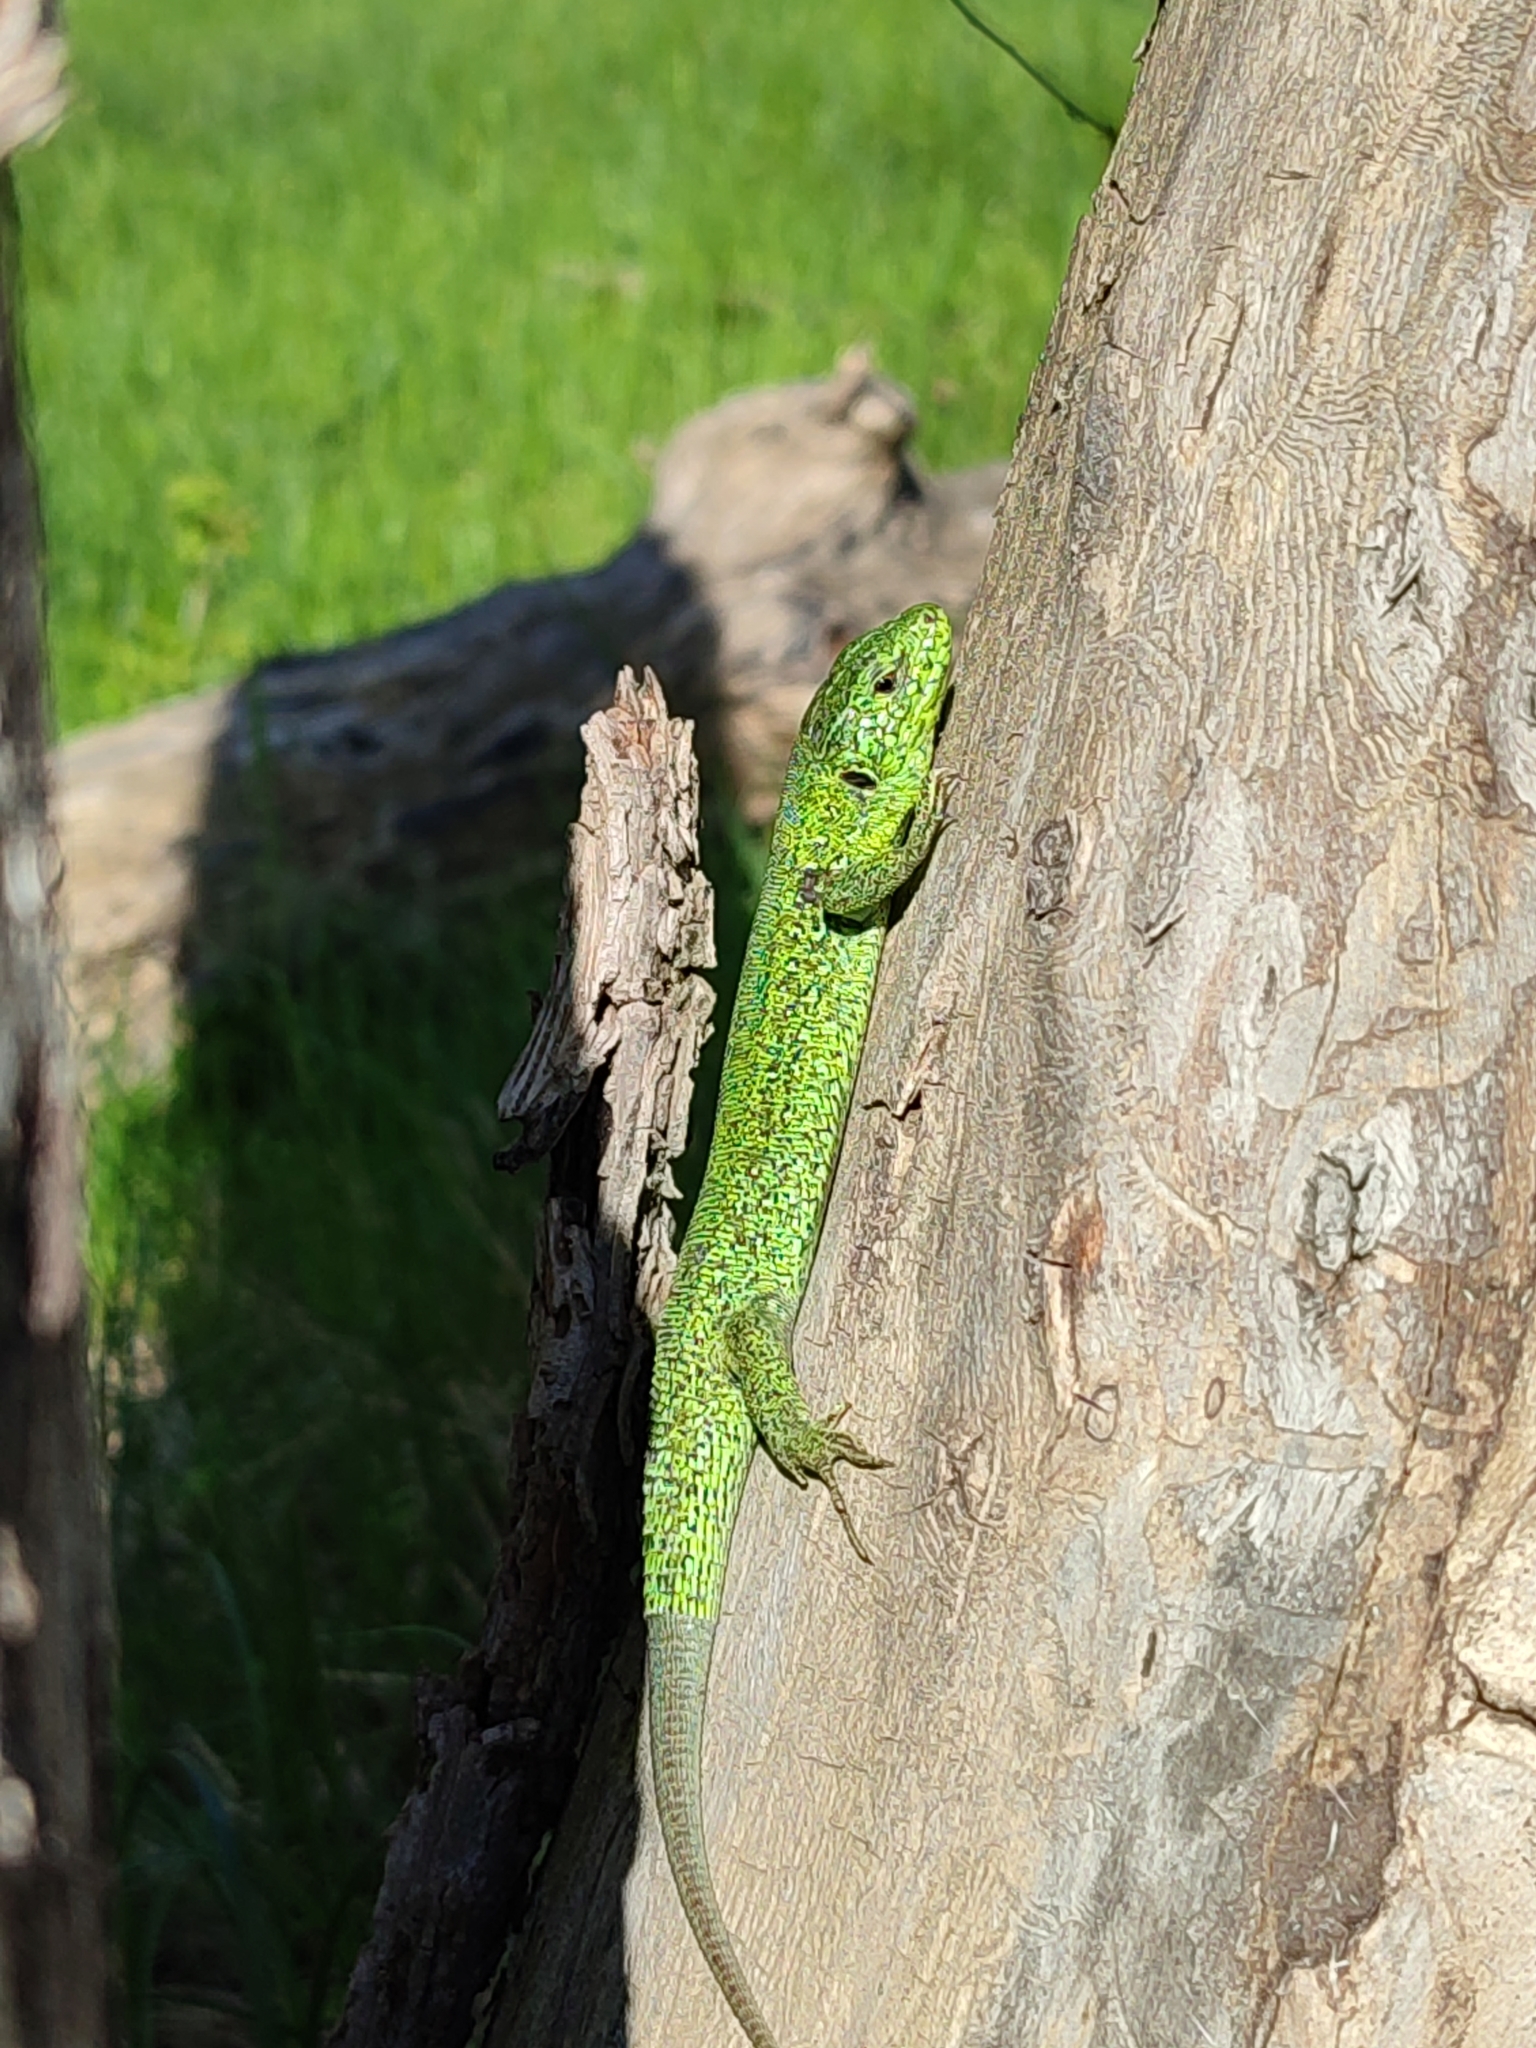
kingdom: Animalia
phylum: Chordata
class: Squamata
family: Lacertidae
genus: Lacerta
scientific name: Lacerta agilis
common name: Sand lizard
